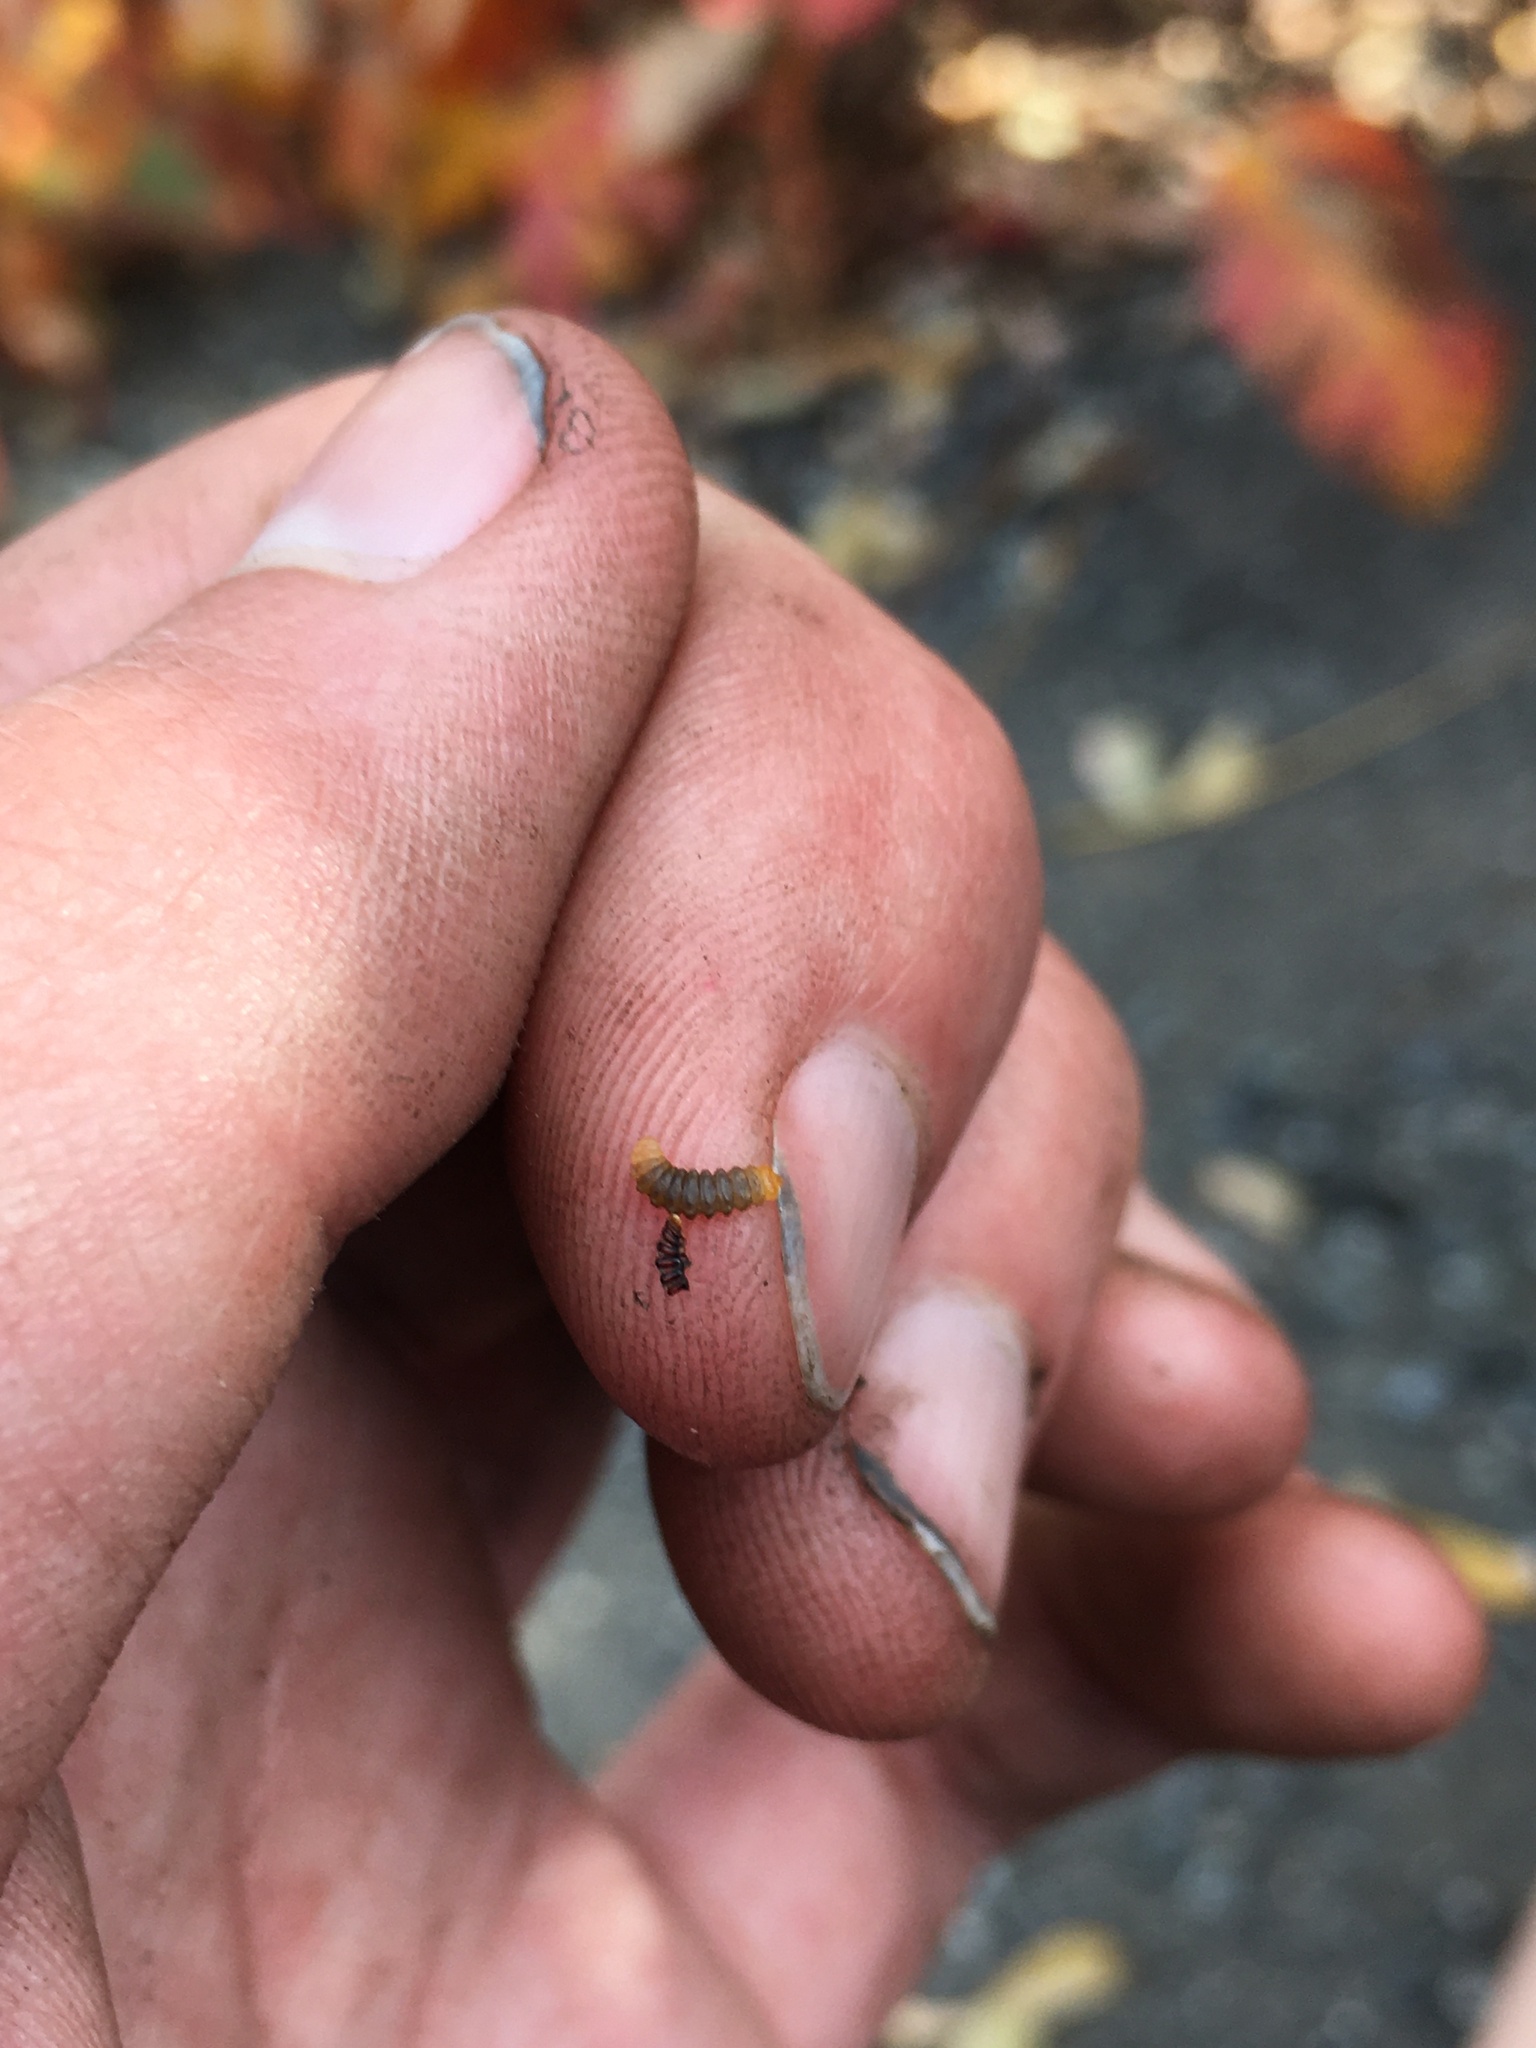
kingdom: Animalia
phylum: Arthropoda
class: Insecta
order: Lepidoptera
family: Gracillariidae
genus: Cameraria
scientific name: Cameraria guttifinitella
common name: Poison ivy leaf-miner moth
